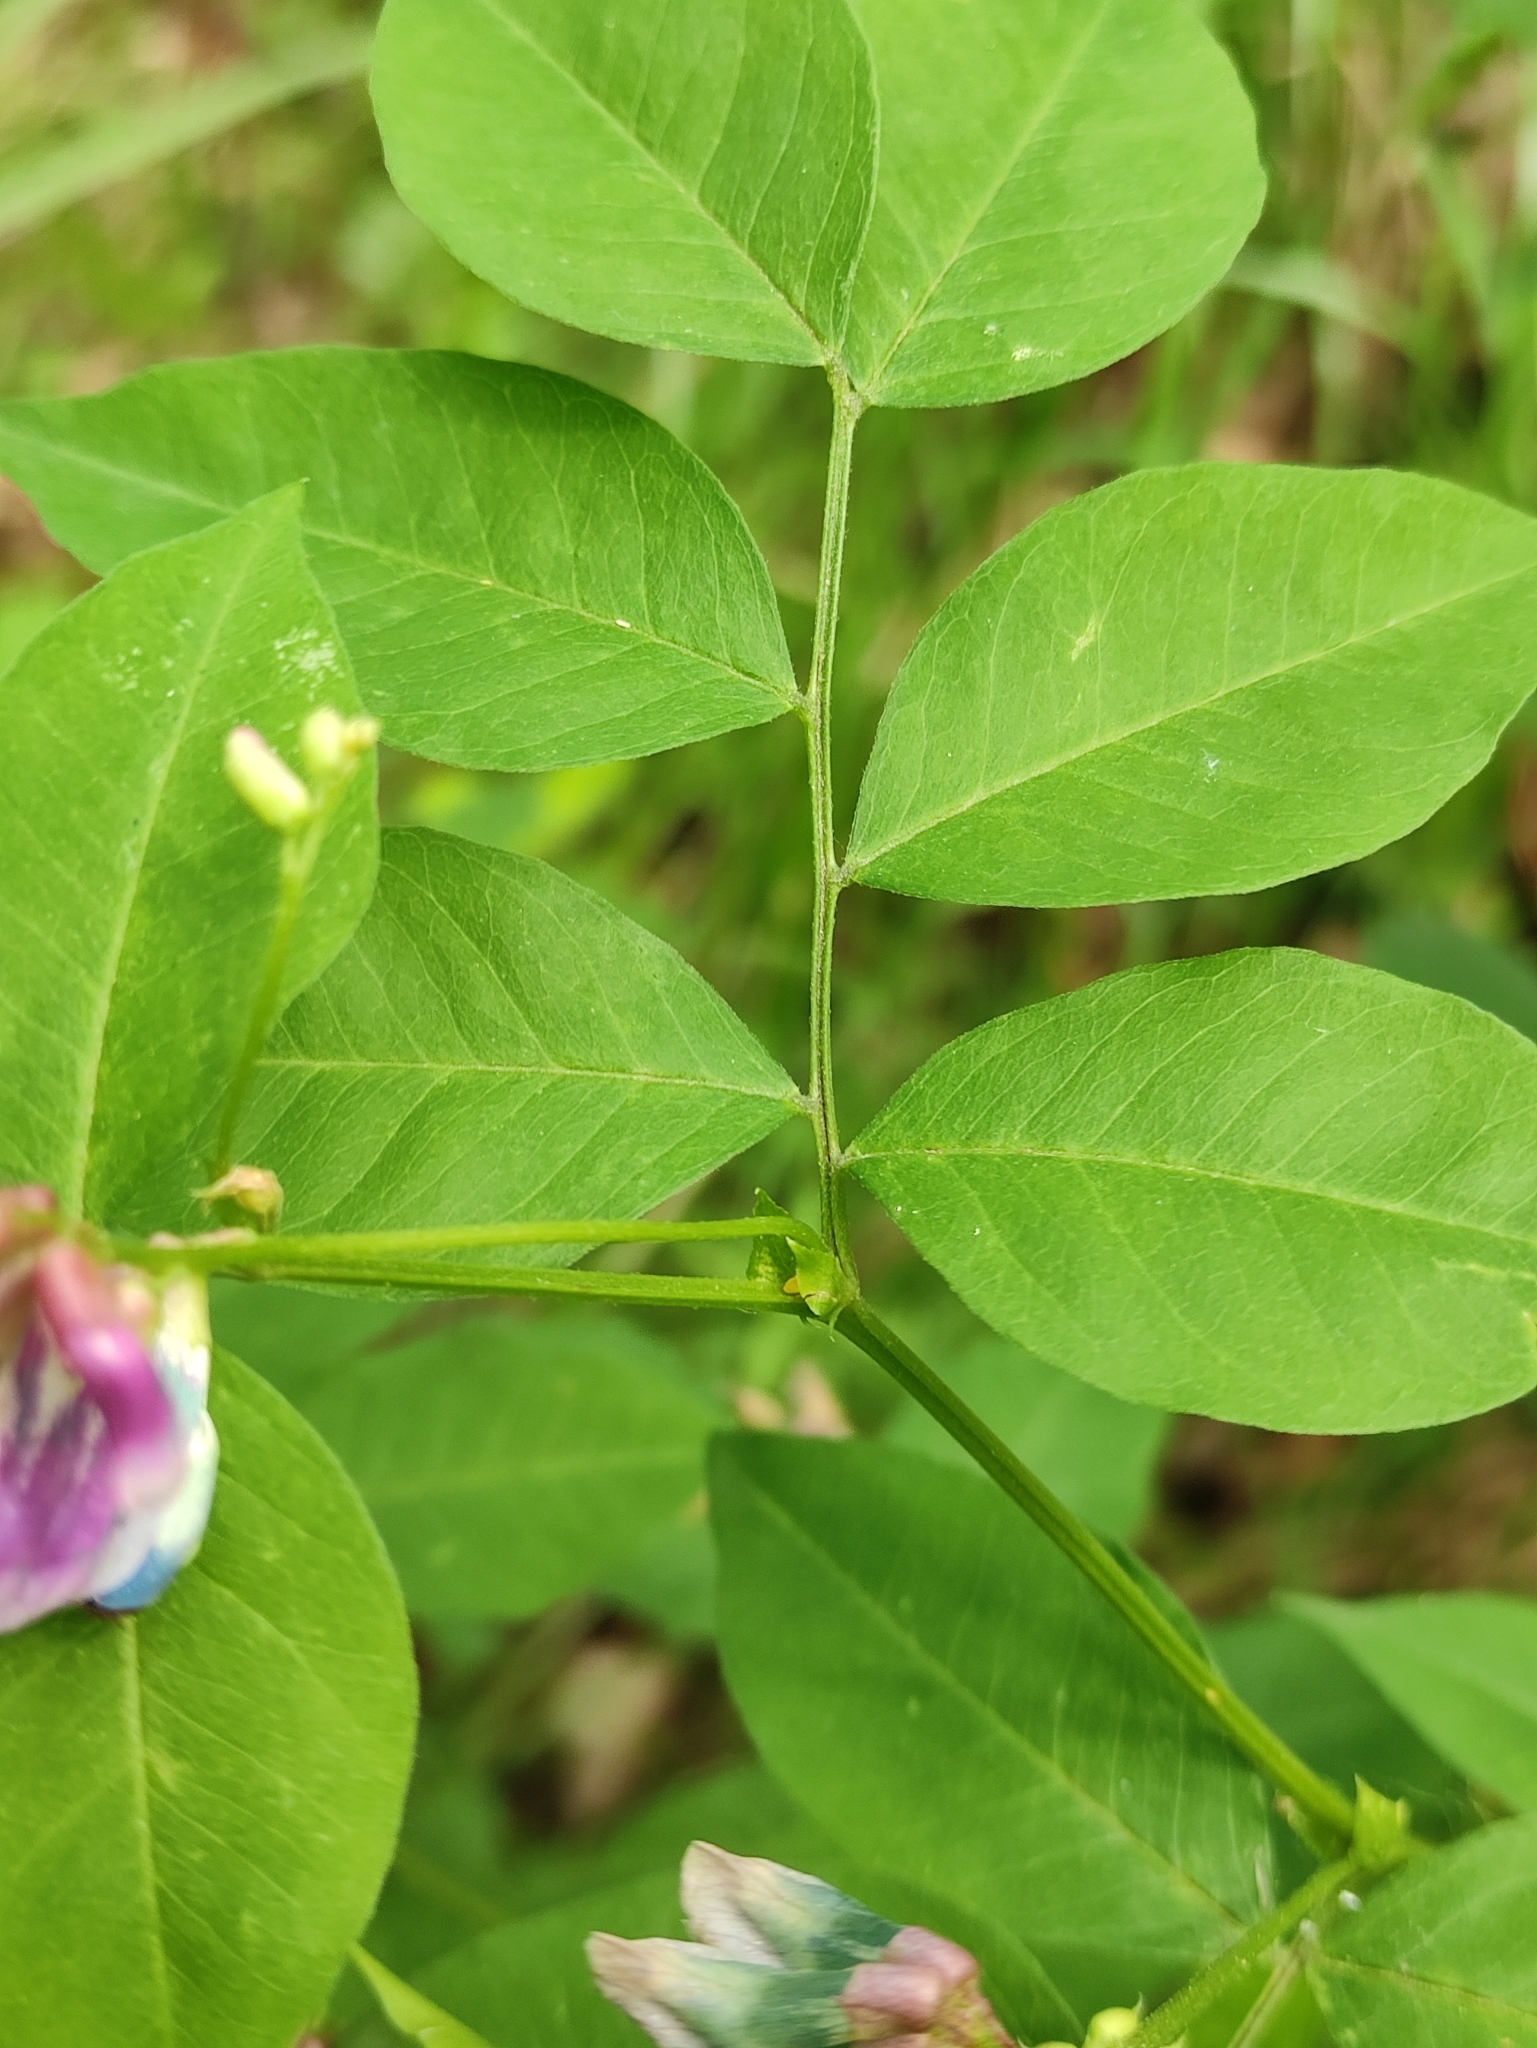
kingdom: Plantae
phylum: Tracheophyta
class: Magnoliopsida
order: Fabales
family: Fabaceae
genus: Vicia
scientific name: Vicia ramuliflora
